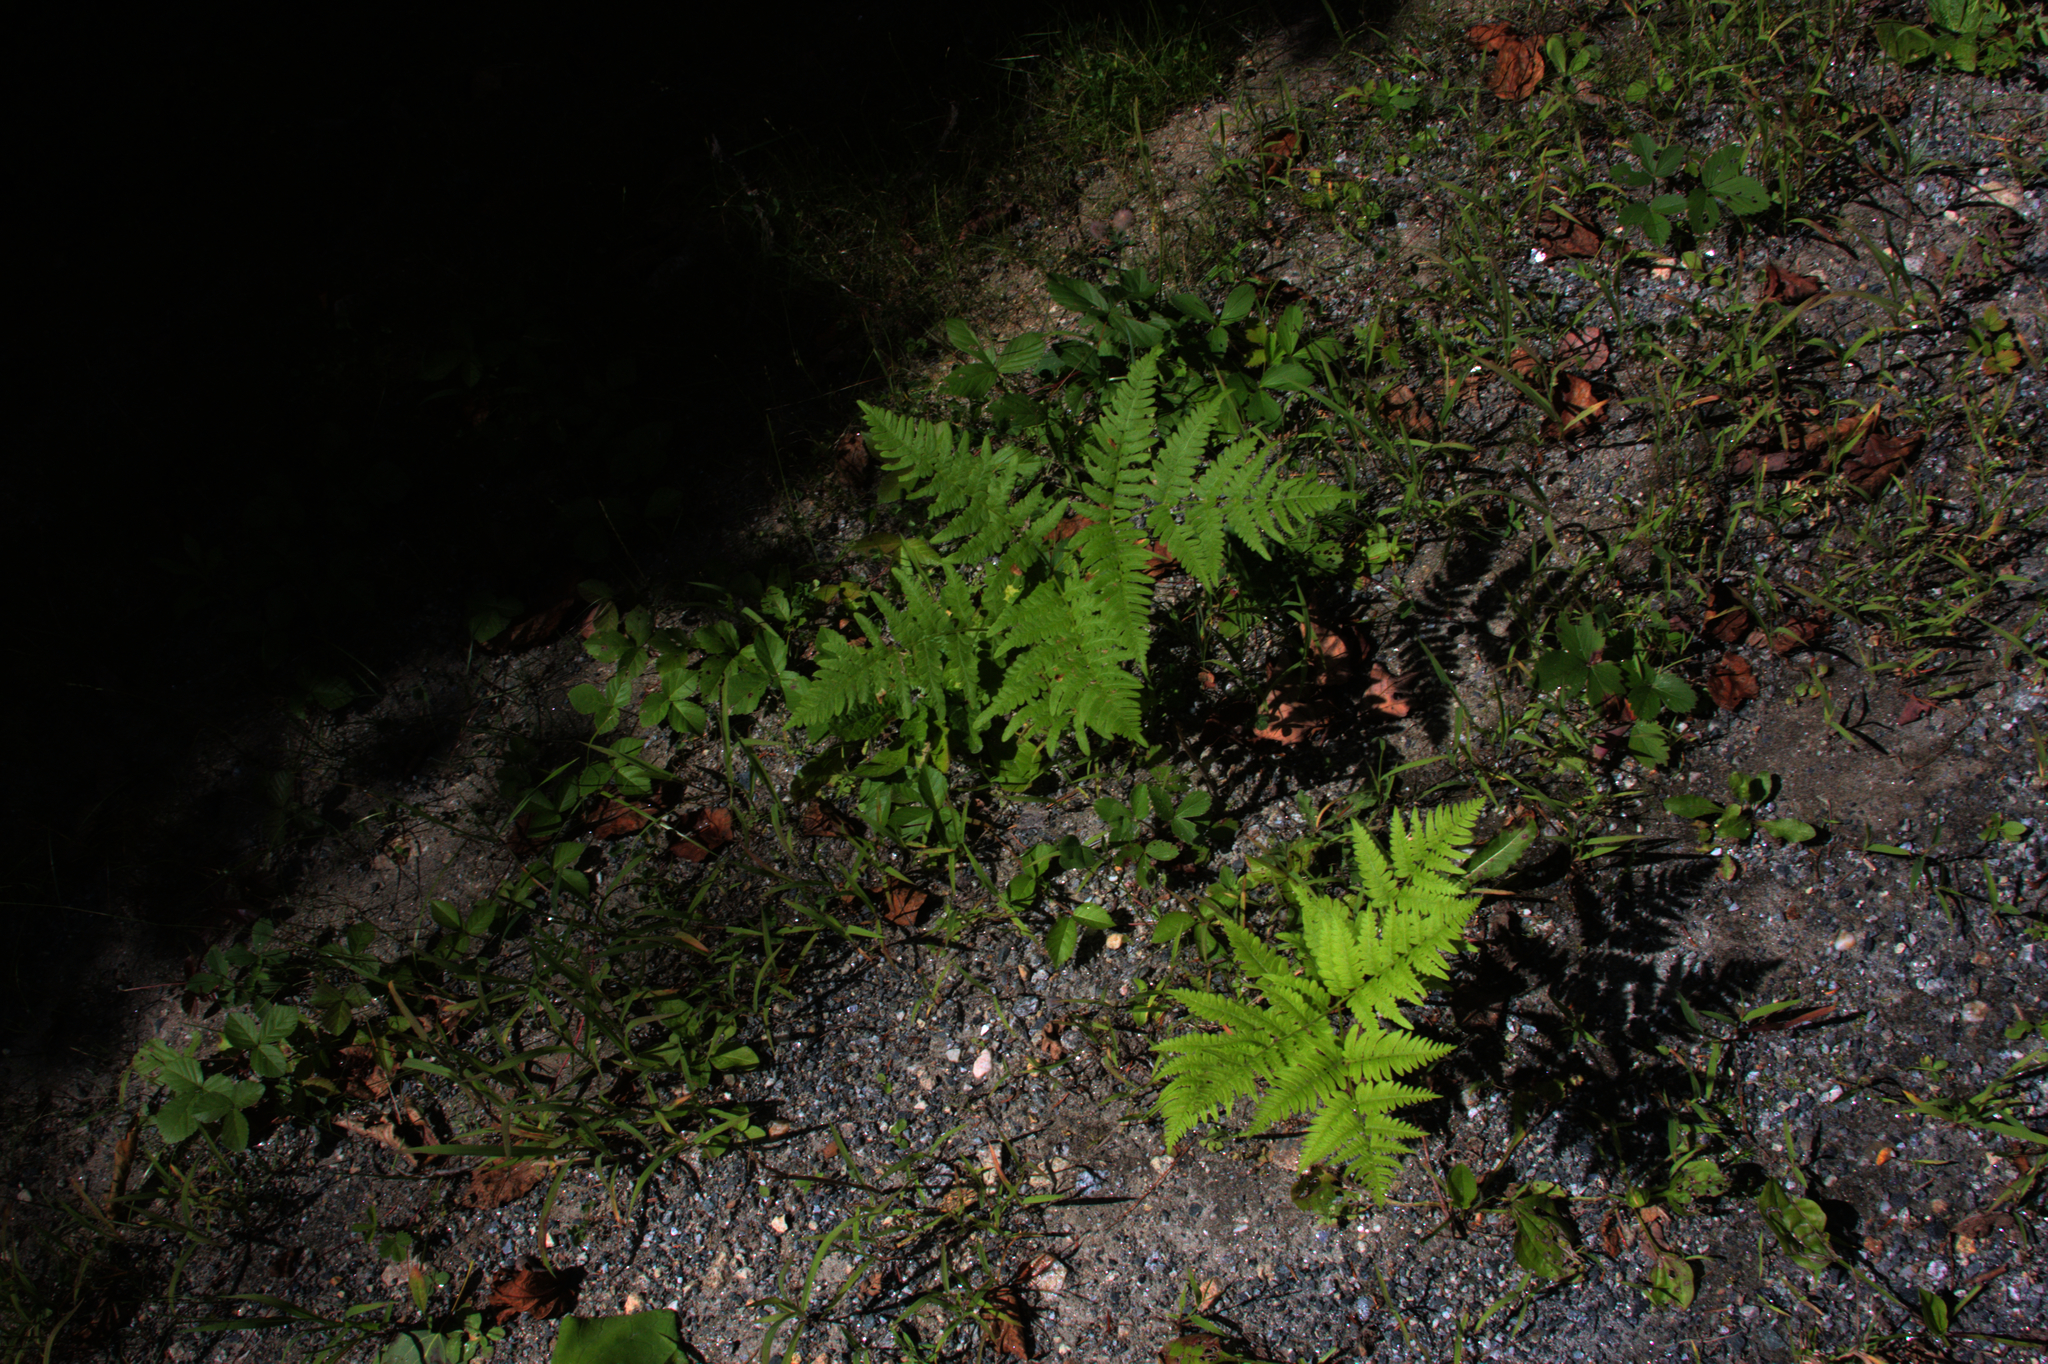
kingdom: Plantae
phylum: Tracheophyta
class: Polypodiopsida
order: Polypodiales
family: Dennstaedtiaceae
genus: Pteridium
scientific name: Pteridium aquilinum
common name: Bracken
